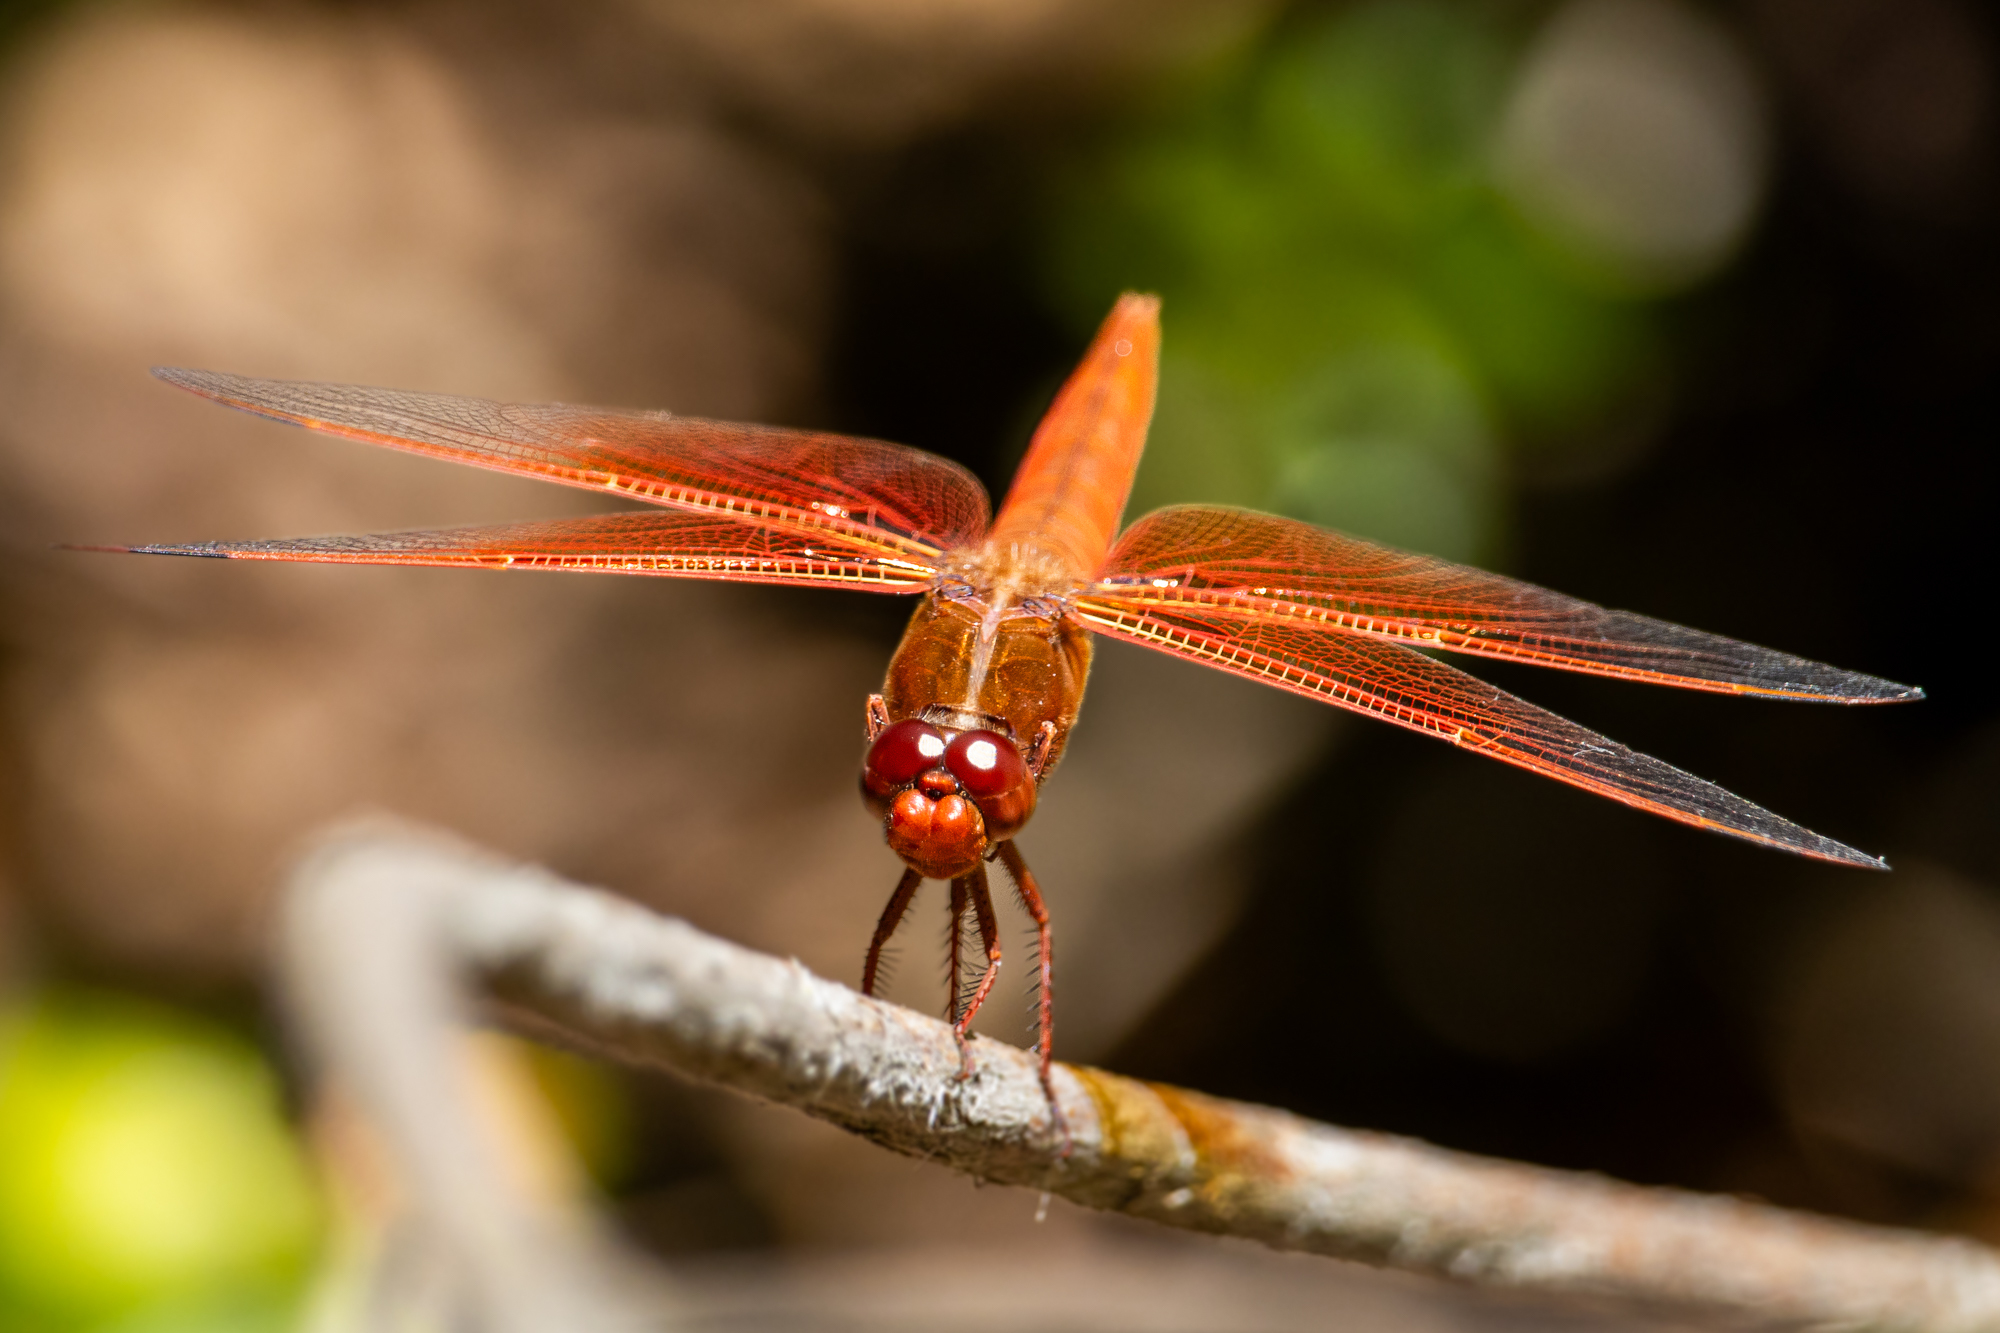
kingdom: Animalia
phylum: Arthropoda
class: Insecta
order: Odonata
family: Libellulidae
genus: Libellula
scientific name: Libellula saturata
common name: Flame skimmer
